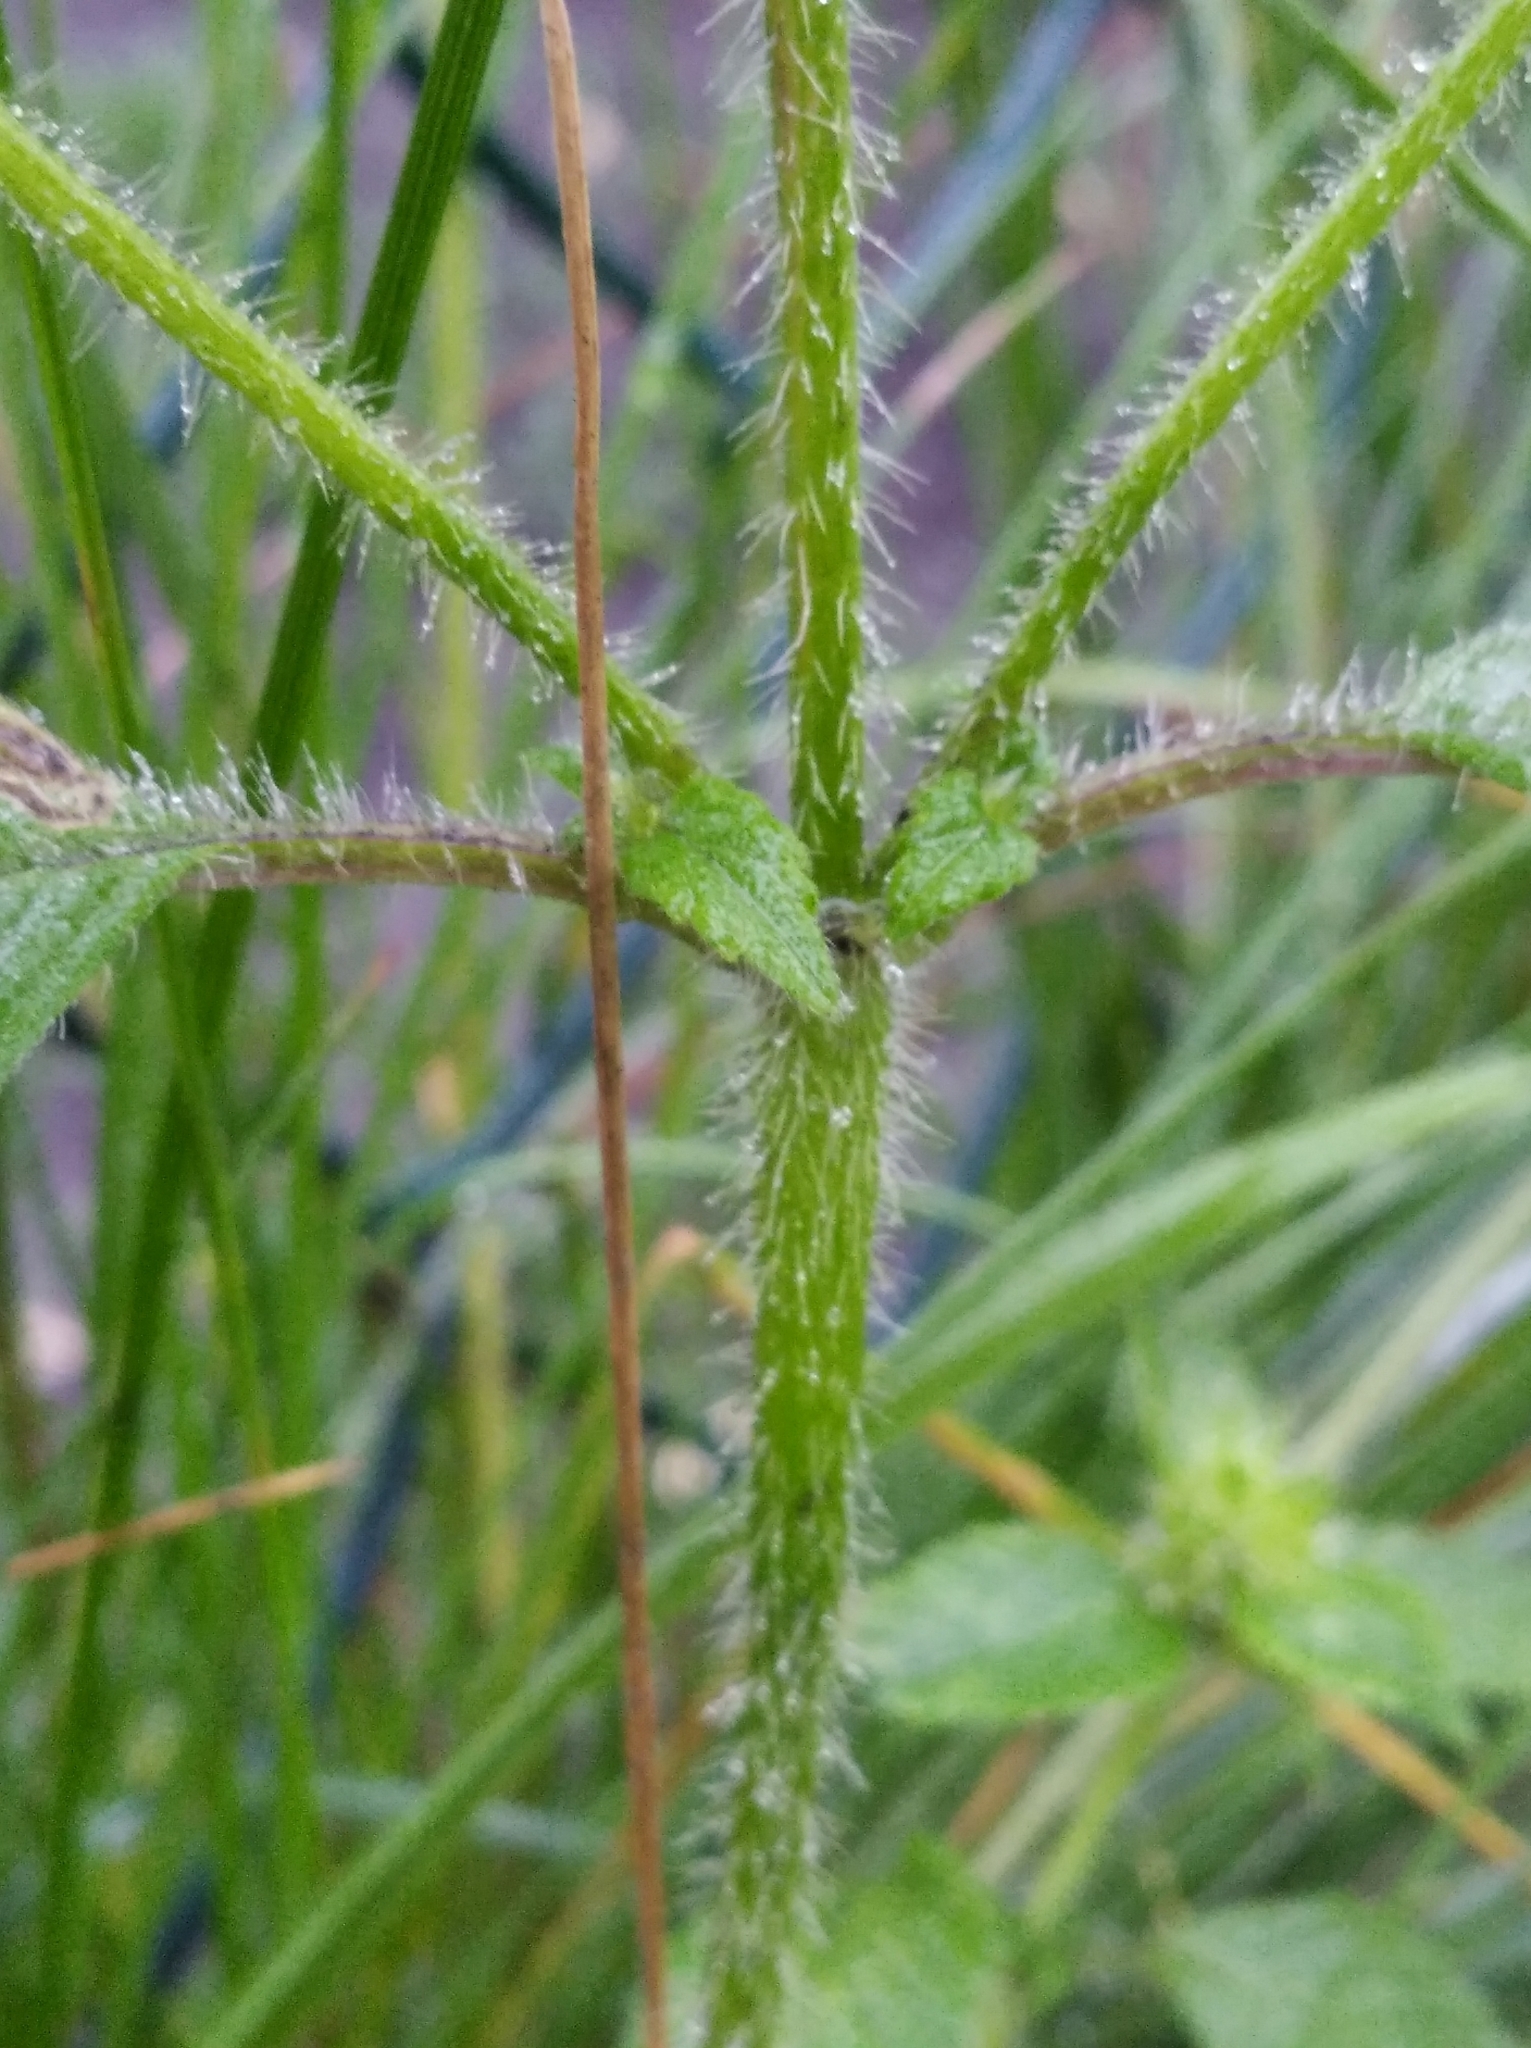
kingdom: Plantae
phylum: Tracheophyta
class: Magnoliopsida
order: Lamiales
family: Lamiaceae
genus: Galeopsis
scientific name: Galeopsis bifida
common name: Bifid hemp-nettle
